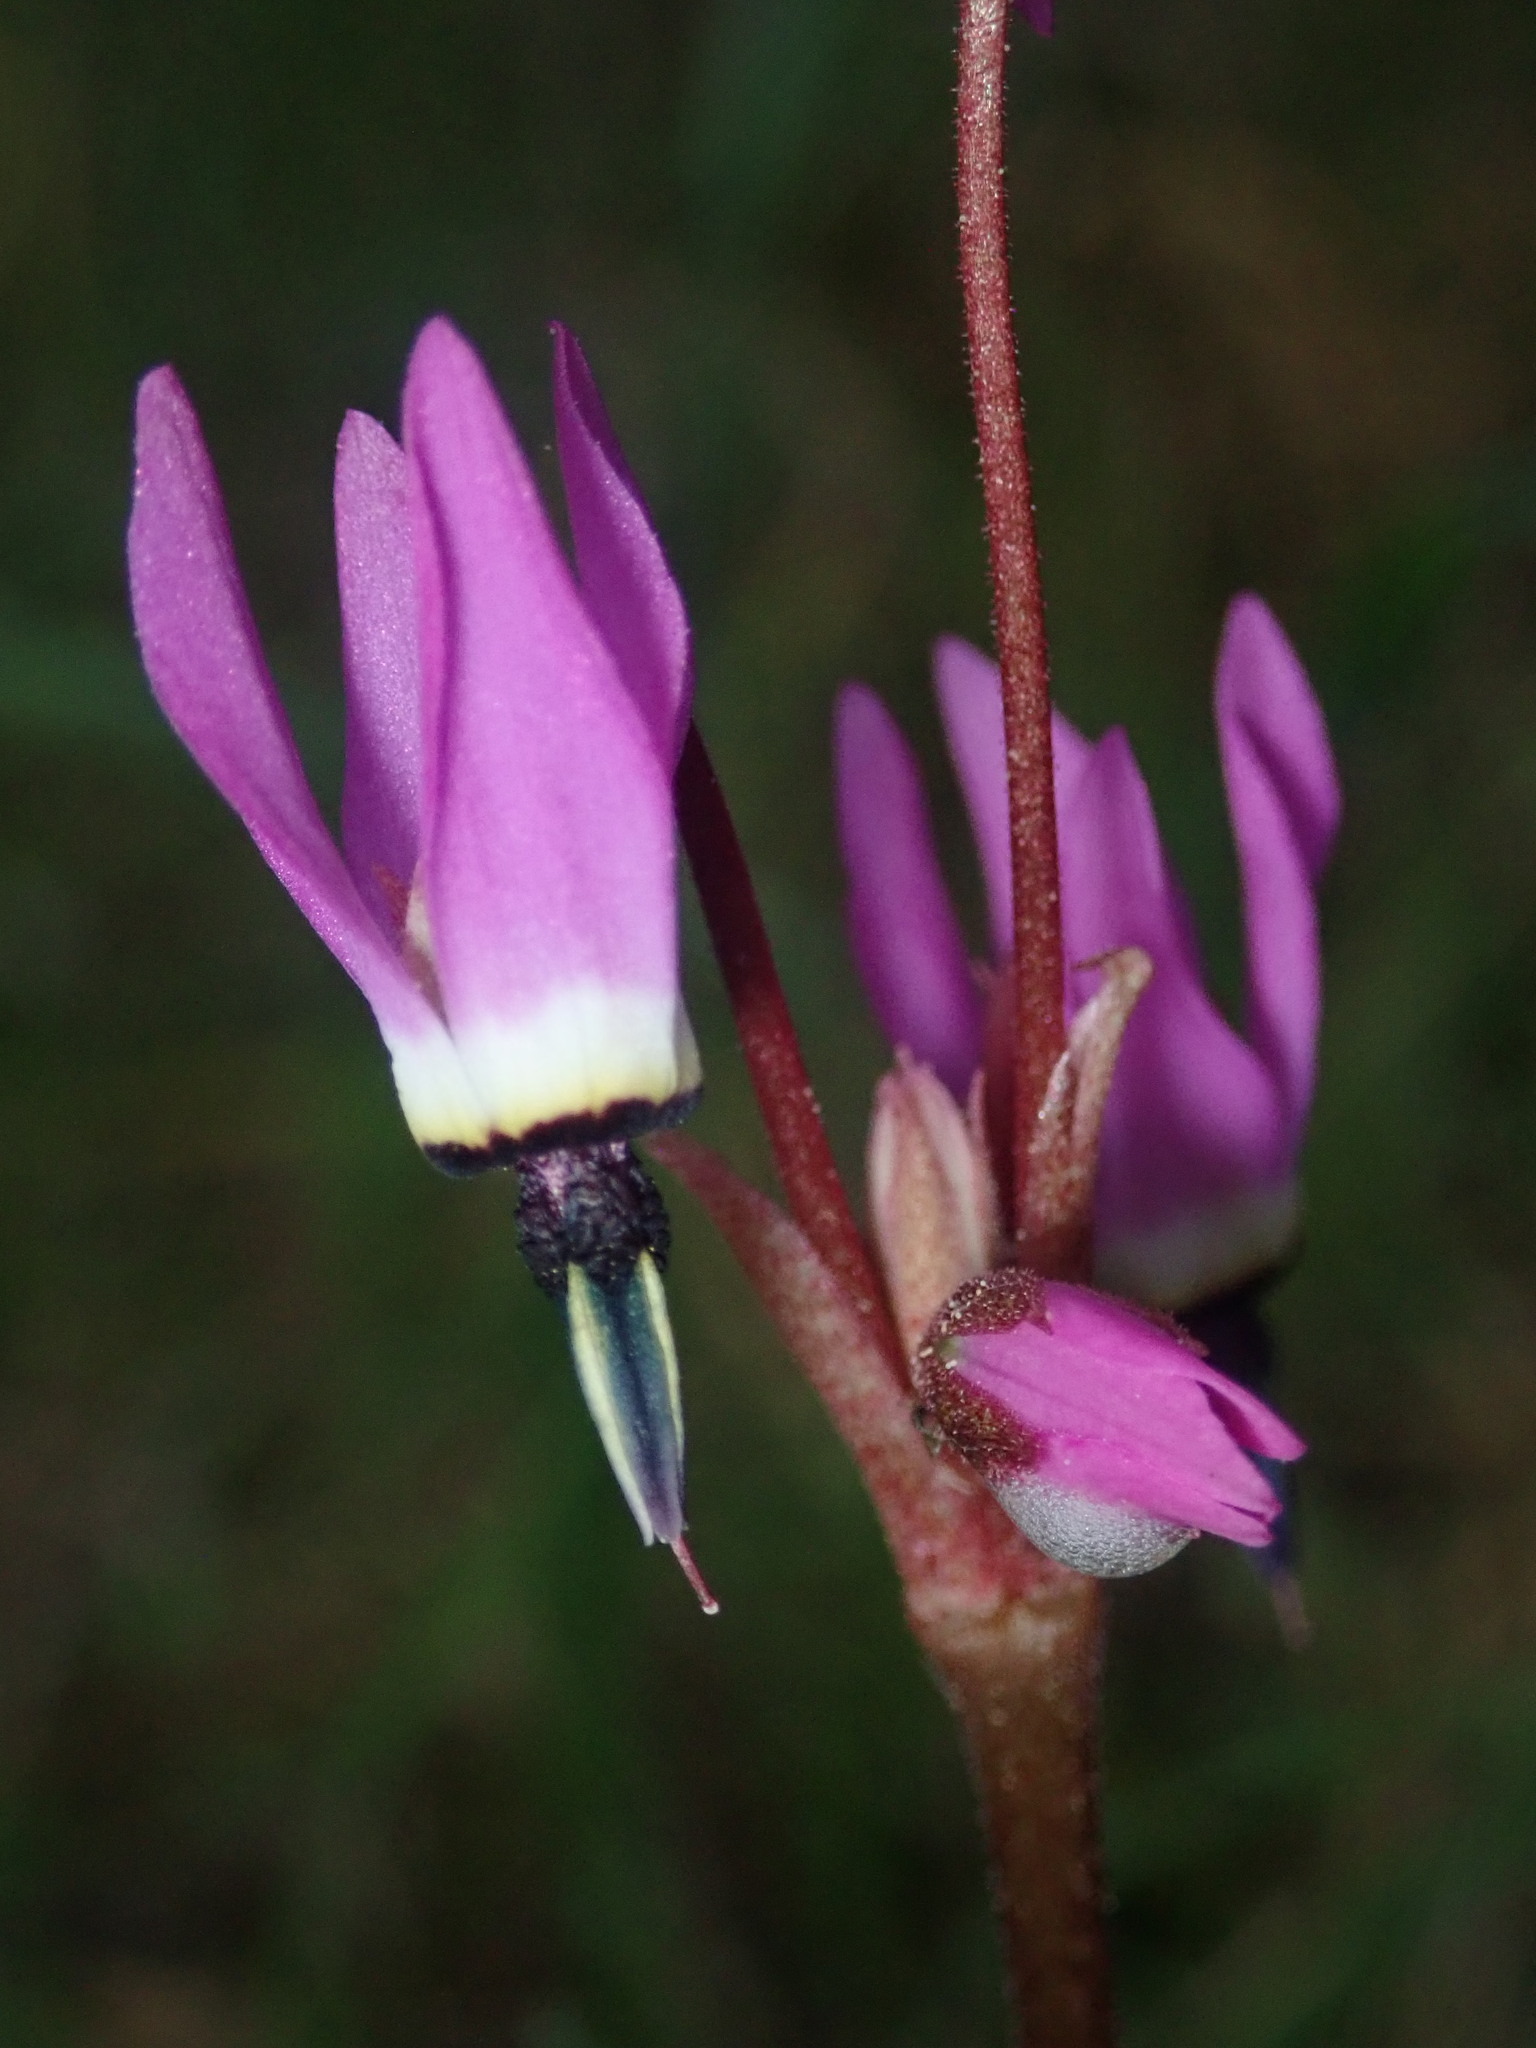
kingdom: Plantae
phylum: Tracheophyta
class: Magnoliopsida
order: Ericales
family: Primulaceae
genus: Dodecatheon
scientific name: Dodecatheon hendersonii
